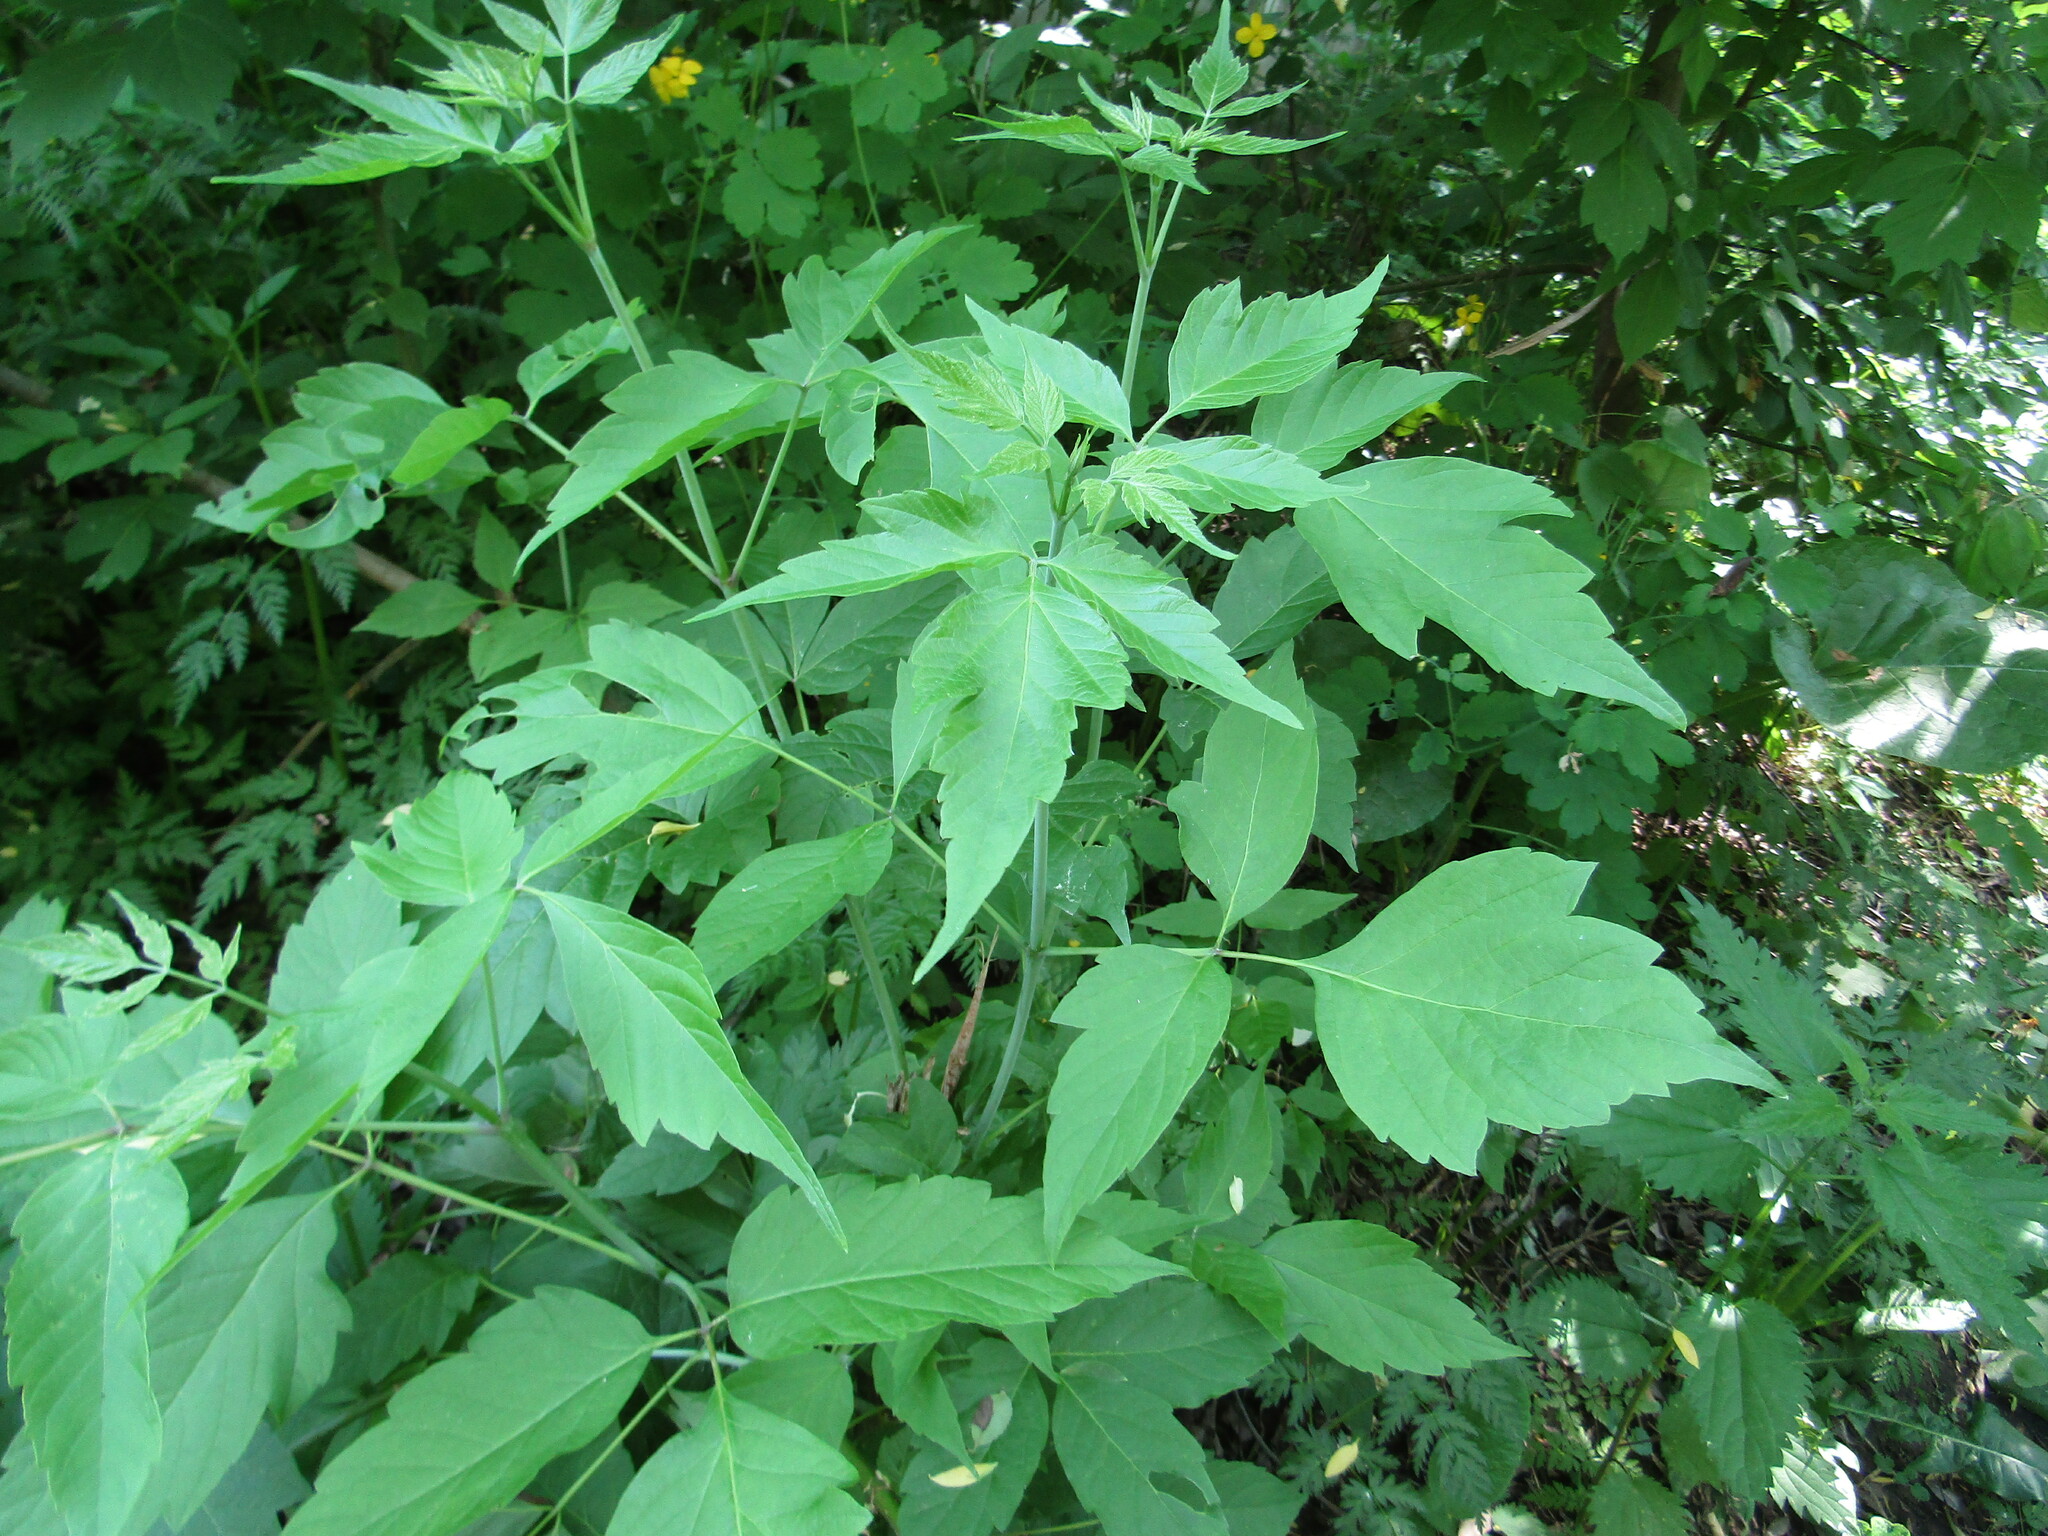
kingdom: Plantae
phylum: Tracheophyta
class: Magnoliopsida
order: Sapindales
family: Sapindaceae
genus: Acer
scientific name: Acer negundo
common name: Ashleaf maple
